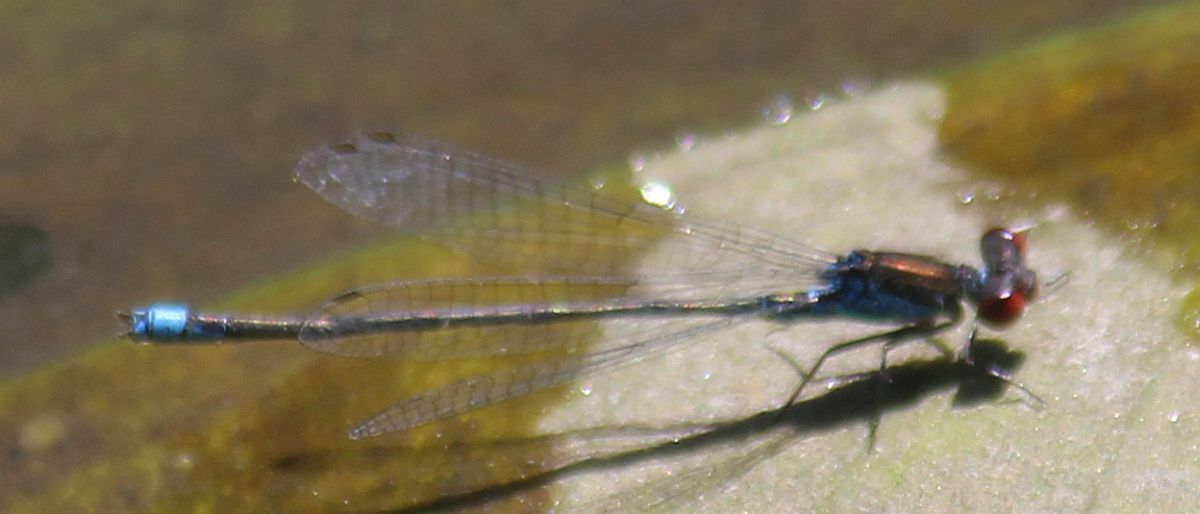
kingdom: Animalia
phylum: Arthropoda
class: Insecta
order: Odonata
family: Coenagrionidae
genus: Erythromma
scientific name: Erythromma viridulum
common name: Small red-eyed damselfly
